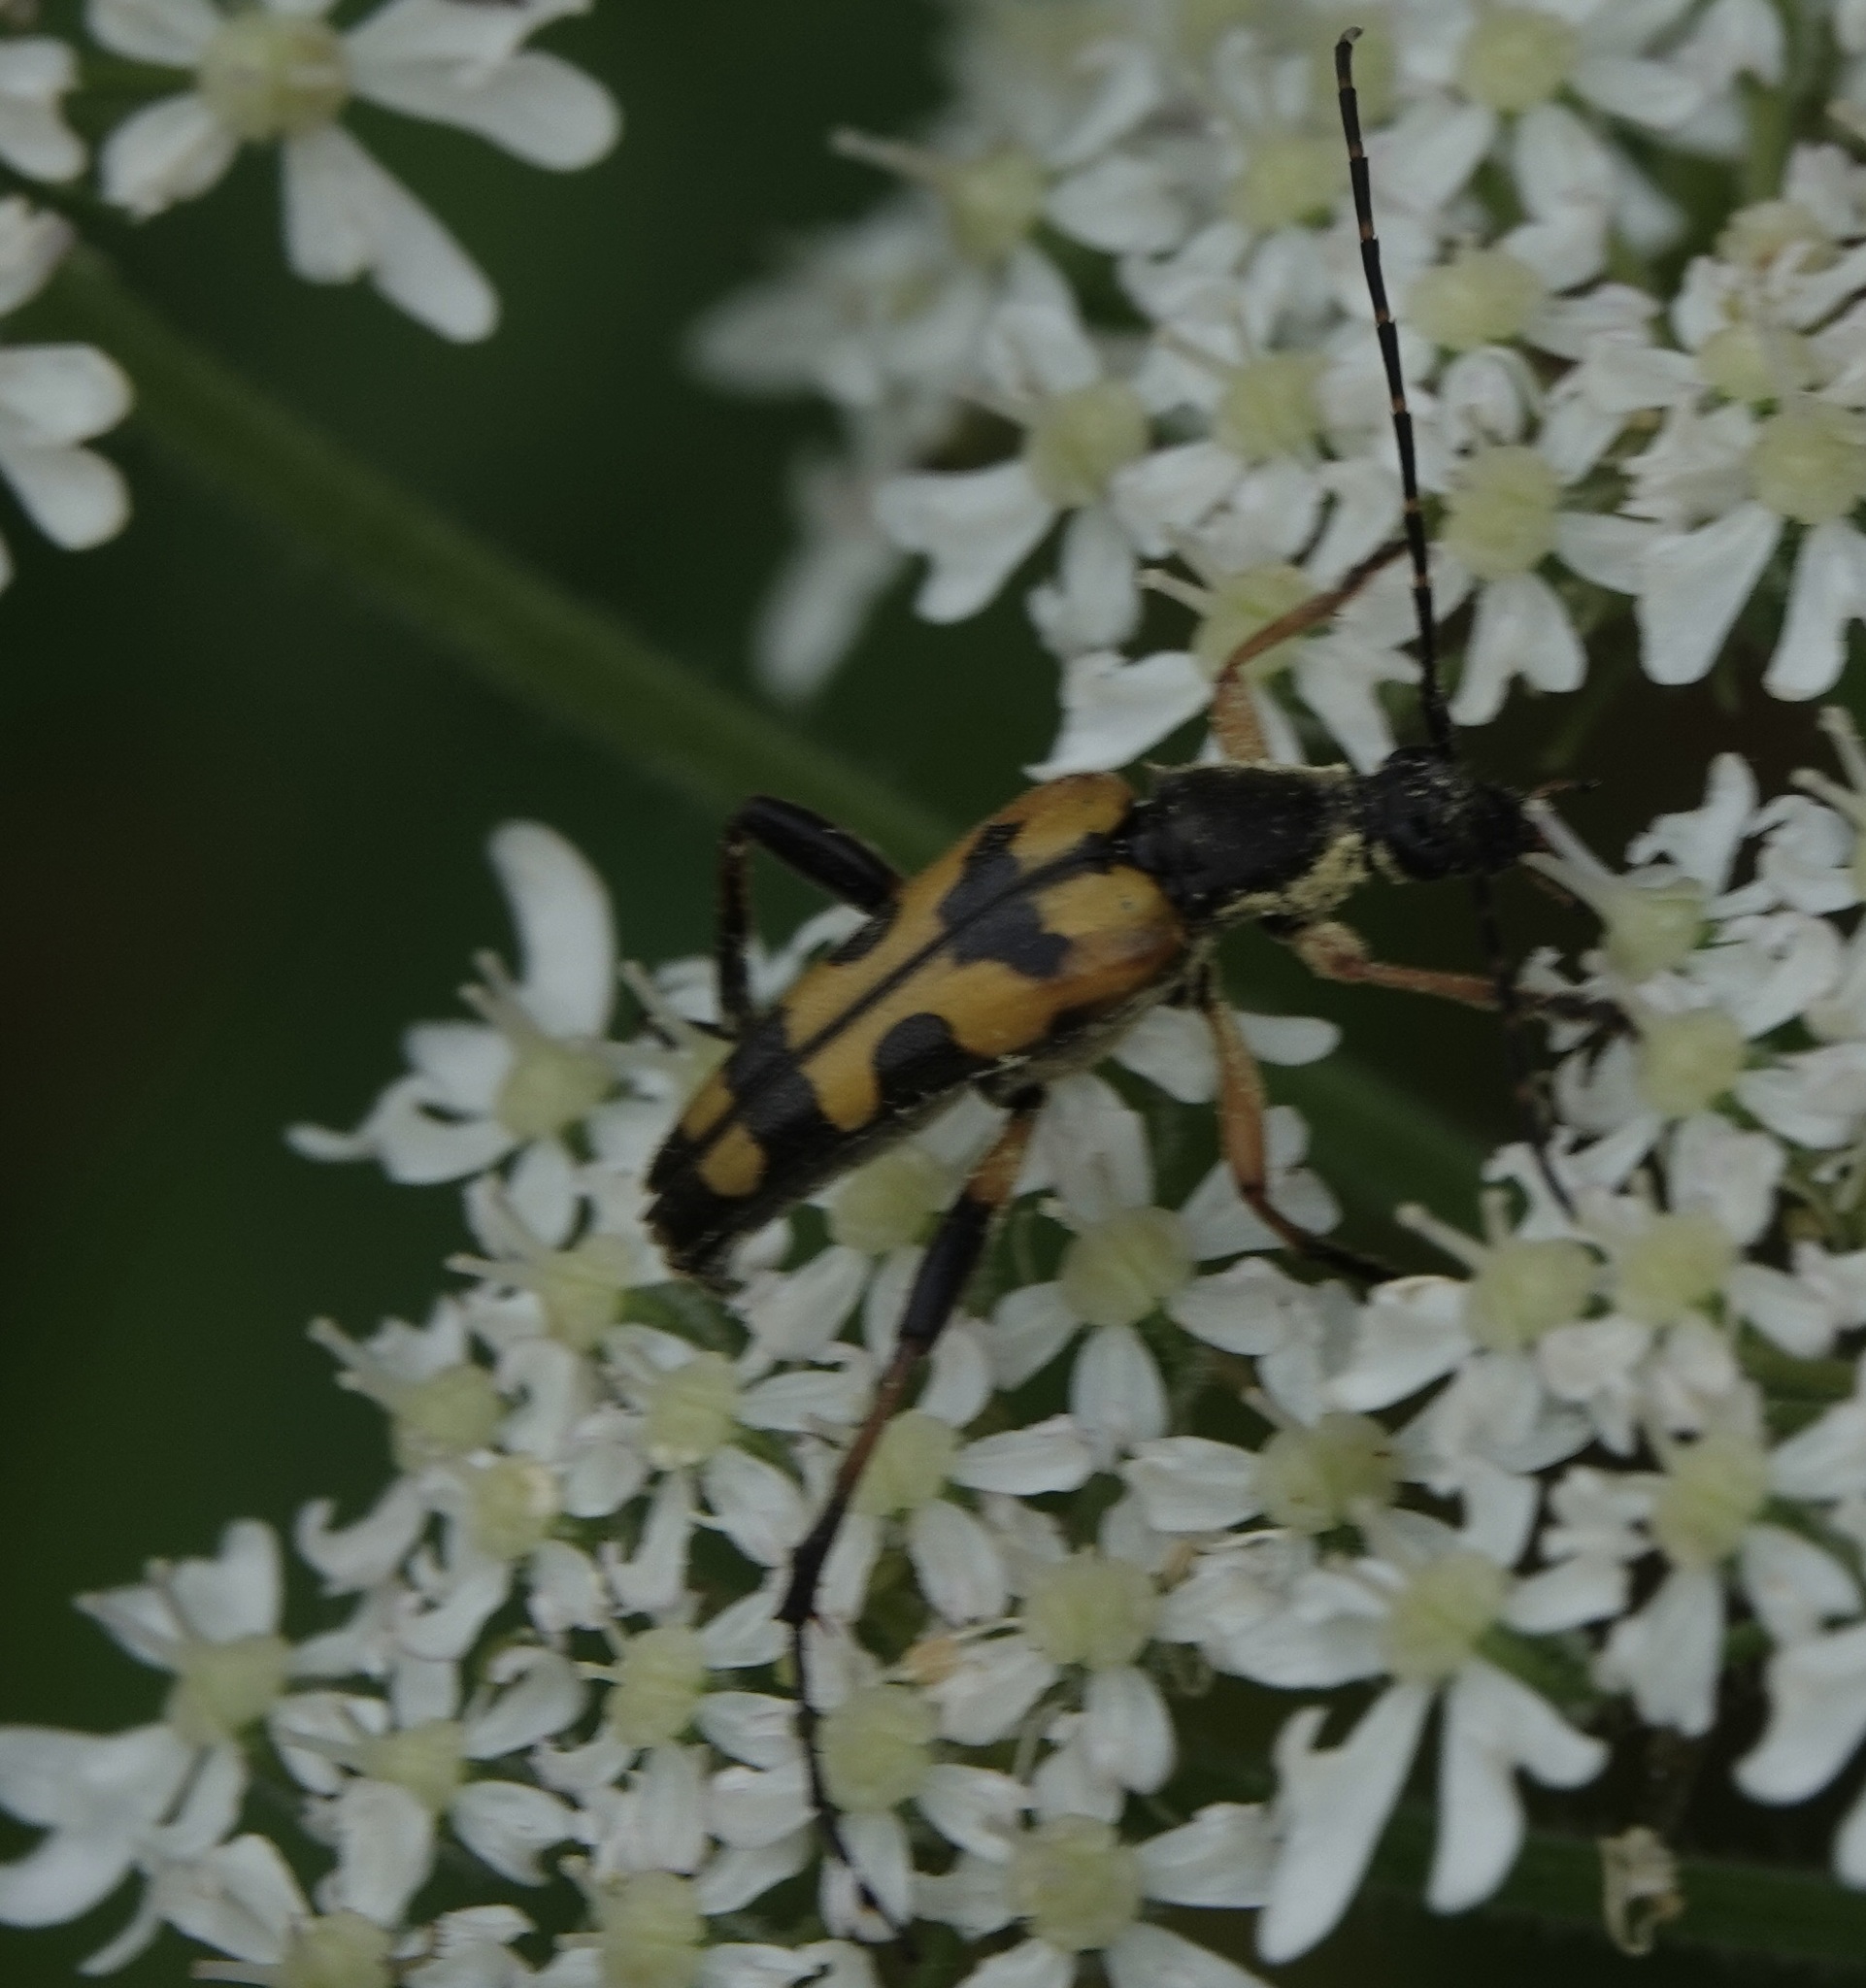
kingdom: Animalia
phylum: Arthropoda
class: Insecta
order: Coleoptera
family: Cerambycidae
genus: Rutpela
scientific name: Rutpela maculata
